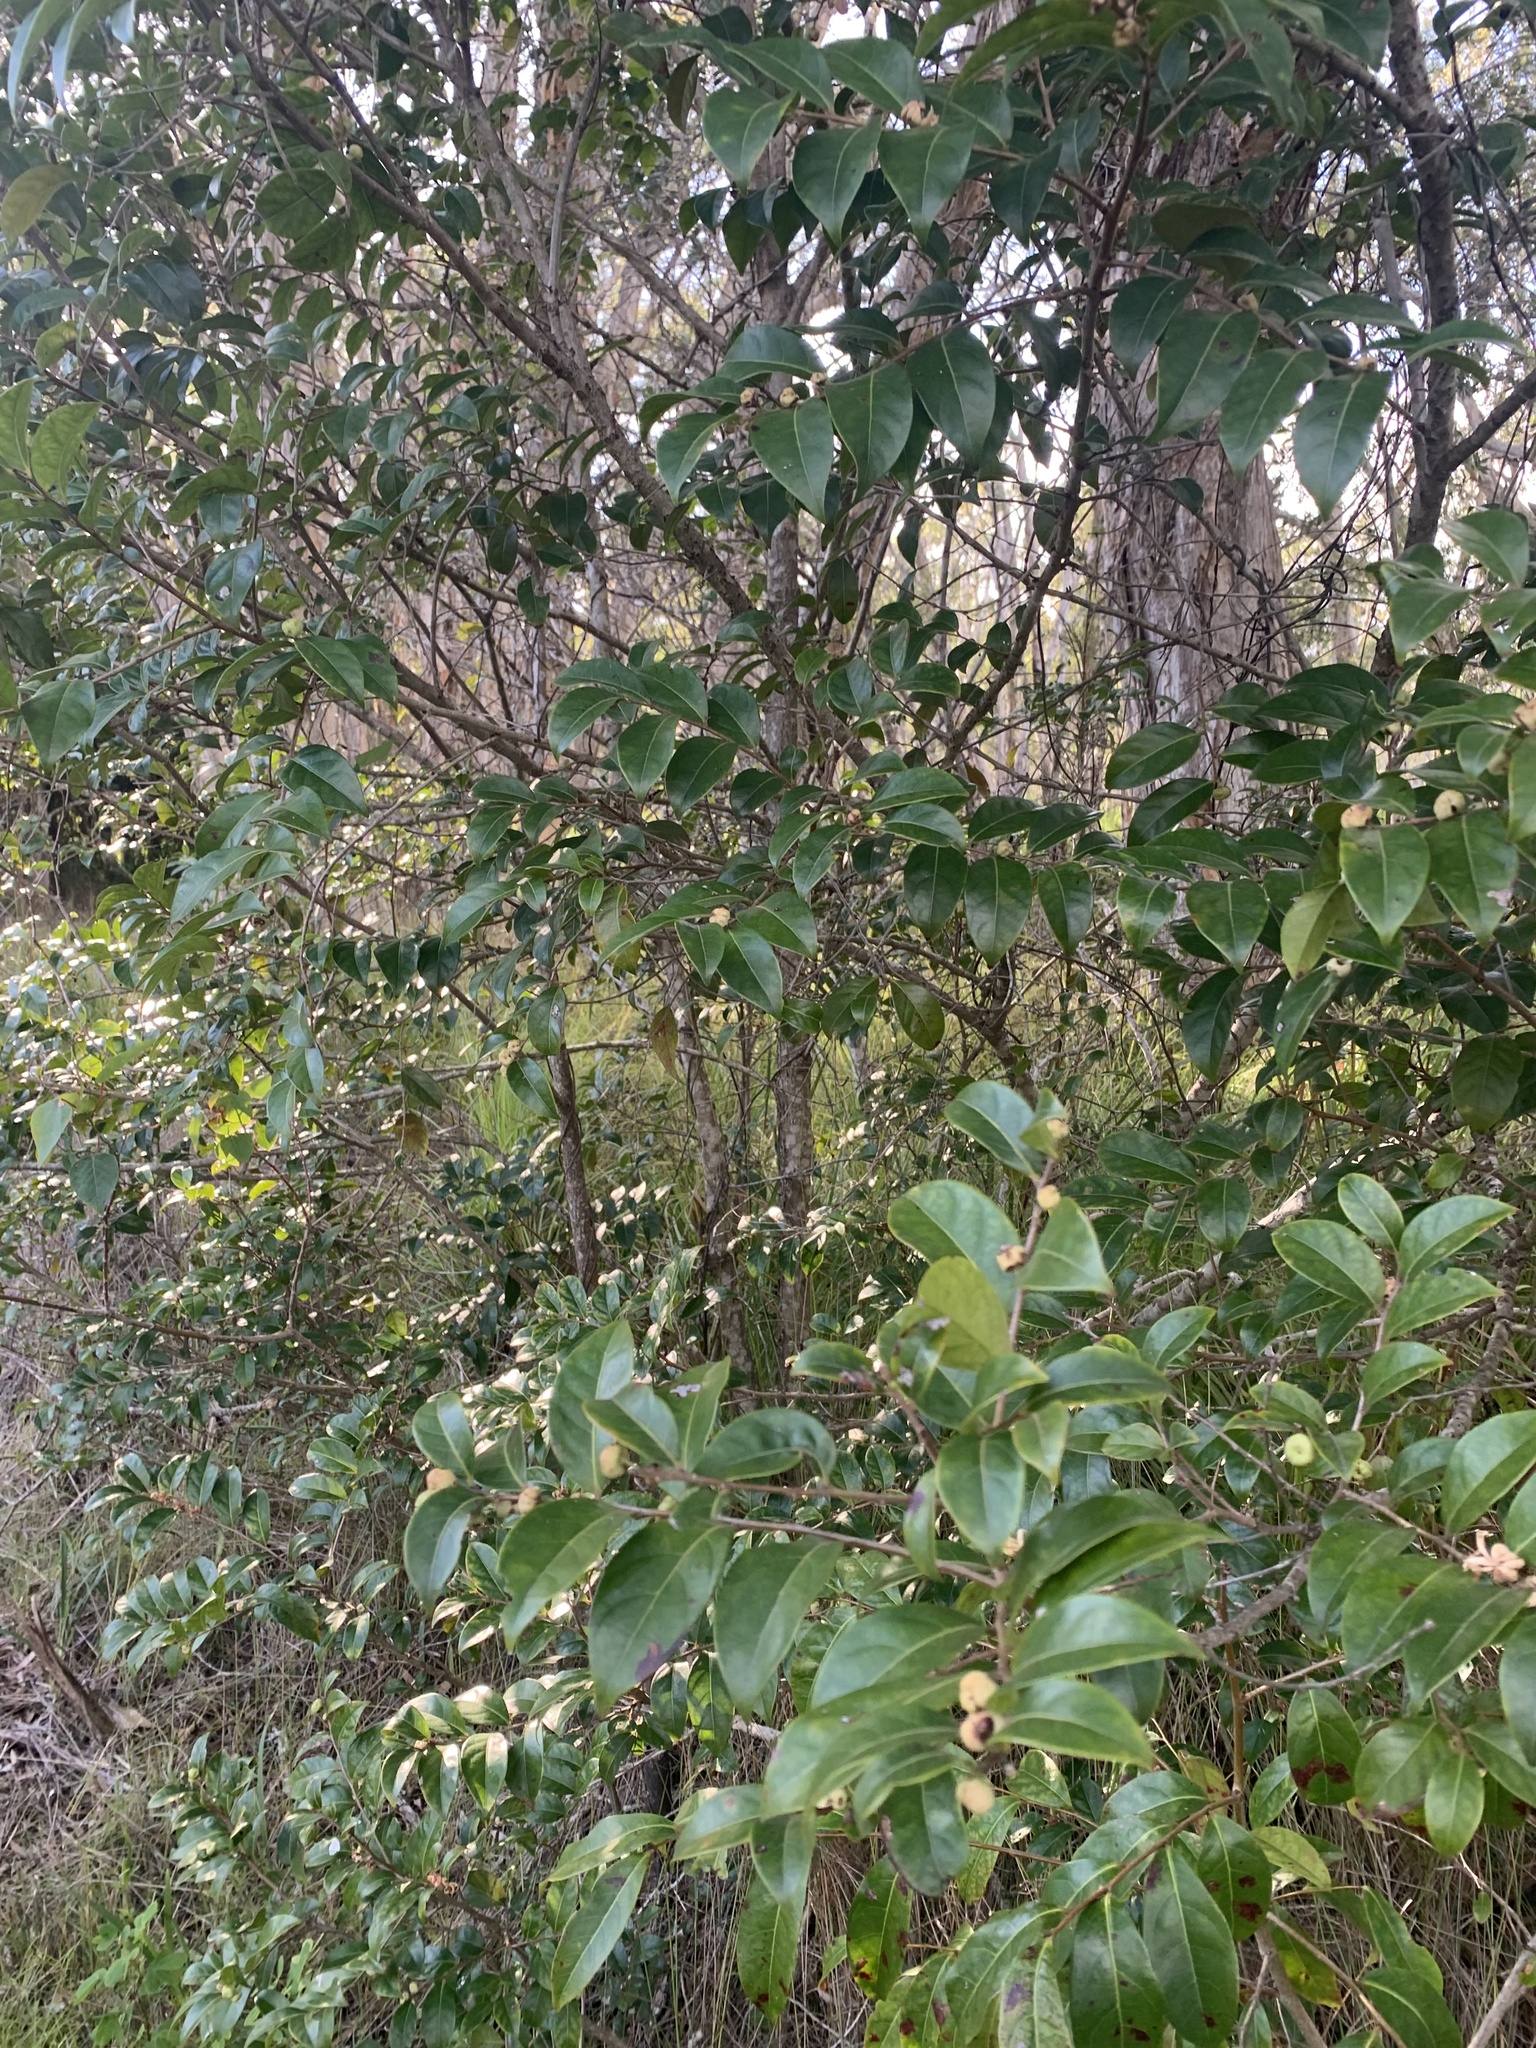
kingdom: Plantae
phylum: Tracheophyta
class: Magnoliopsida
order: Malpighiales
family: Phyllanthaceae
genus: Glochidion
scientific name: Glochidion ferdinandi
